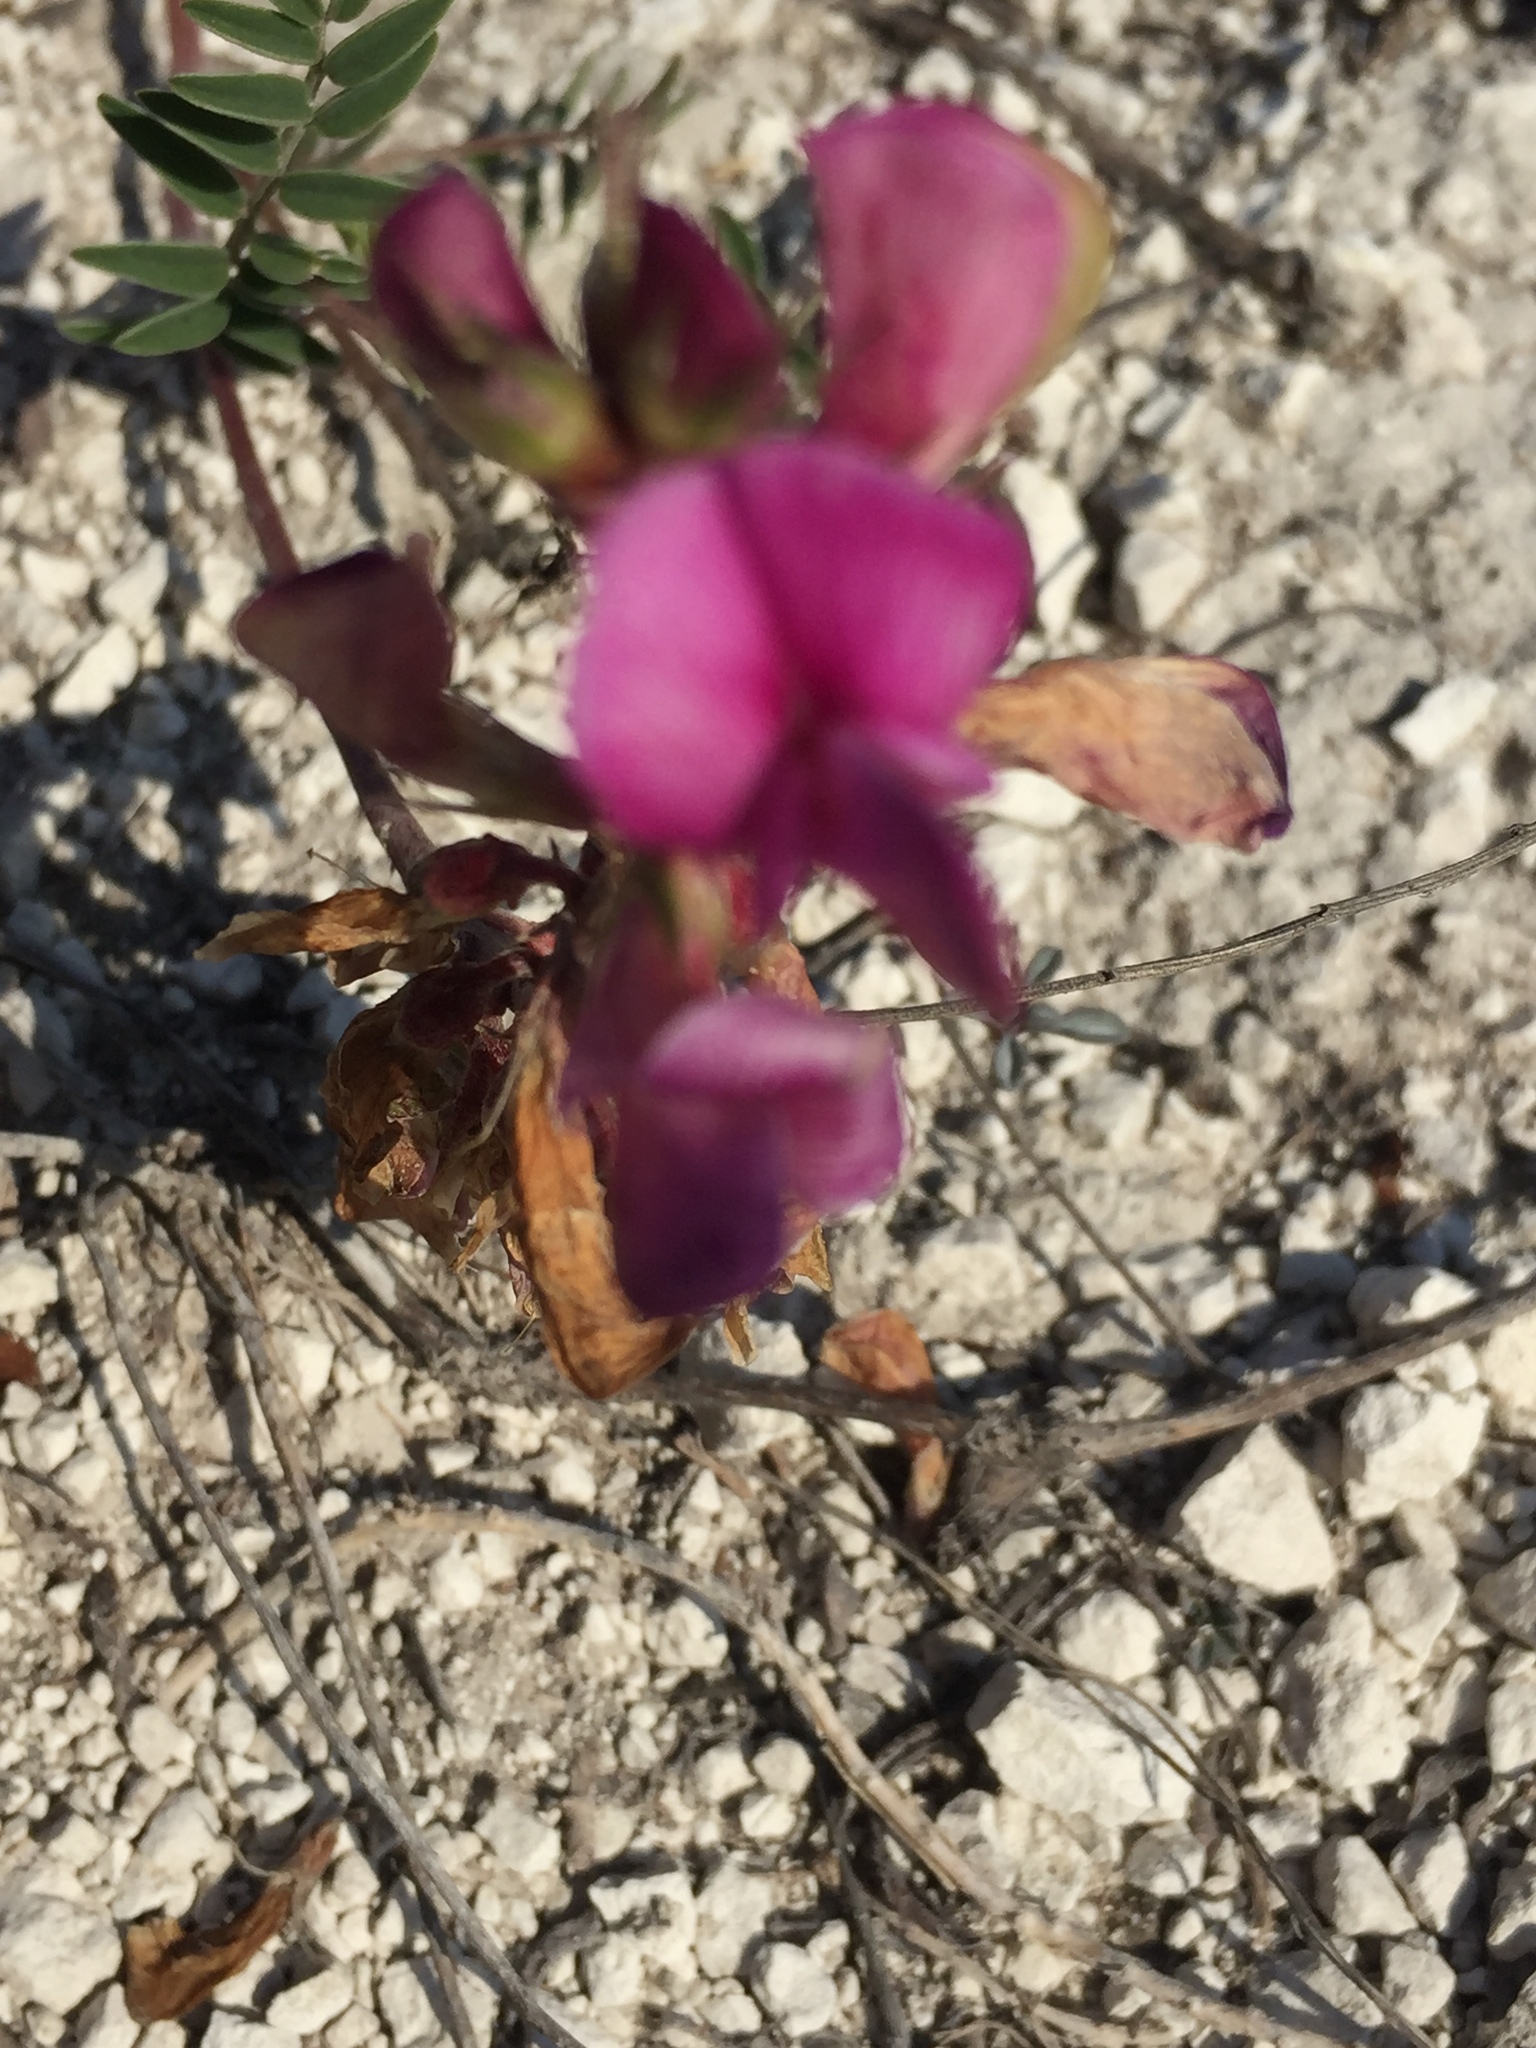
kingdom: Plantae
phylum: Tracheophyta
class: Magnoliopsida
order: Fabales
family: Fabaceae
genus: Hedysarum
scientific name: Hedysarum ucrainicum
